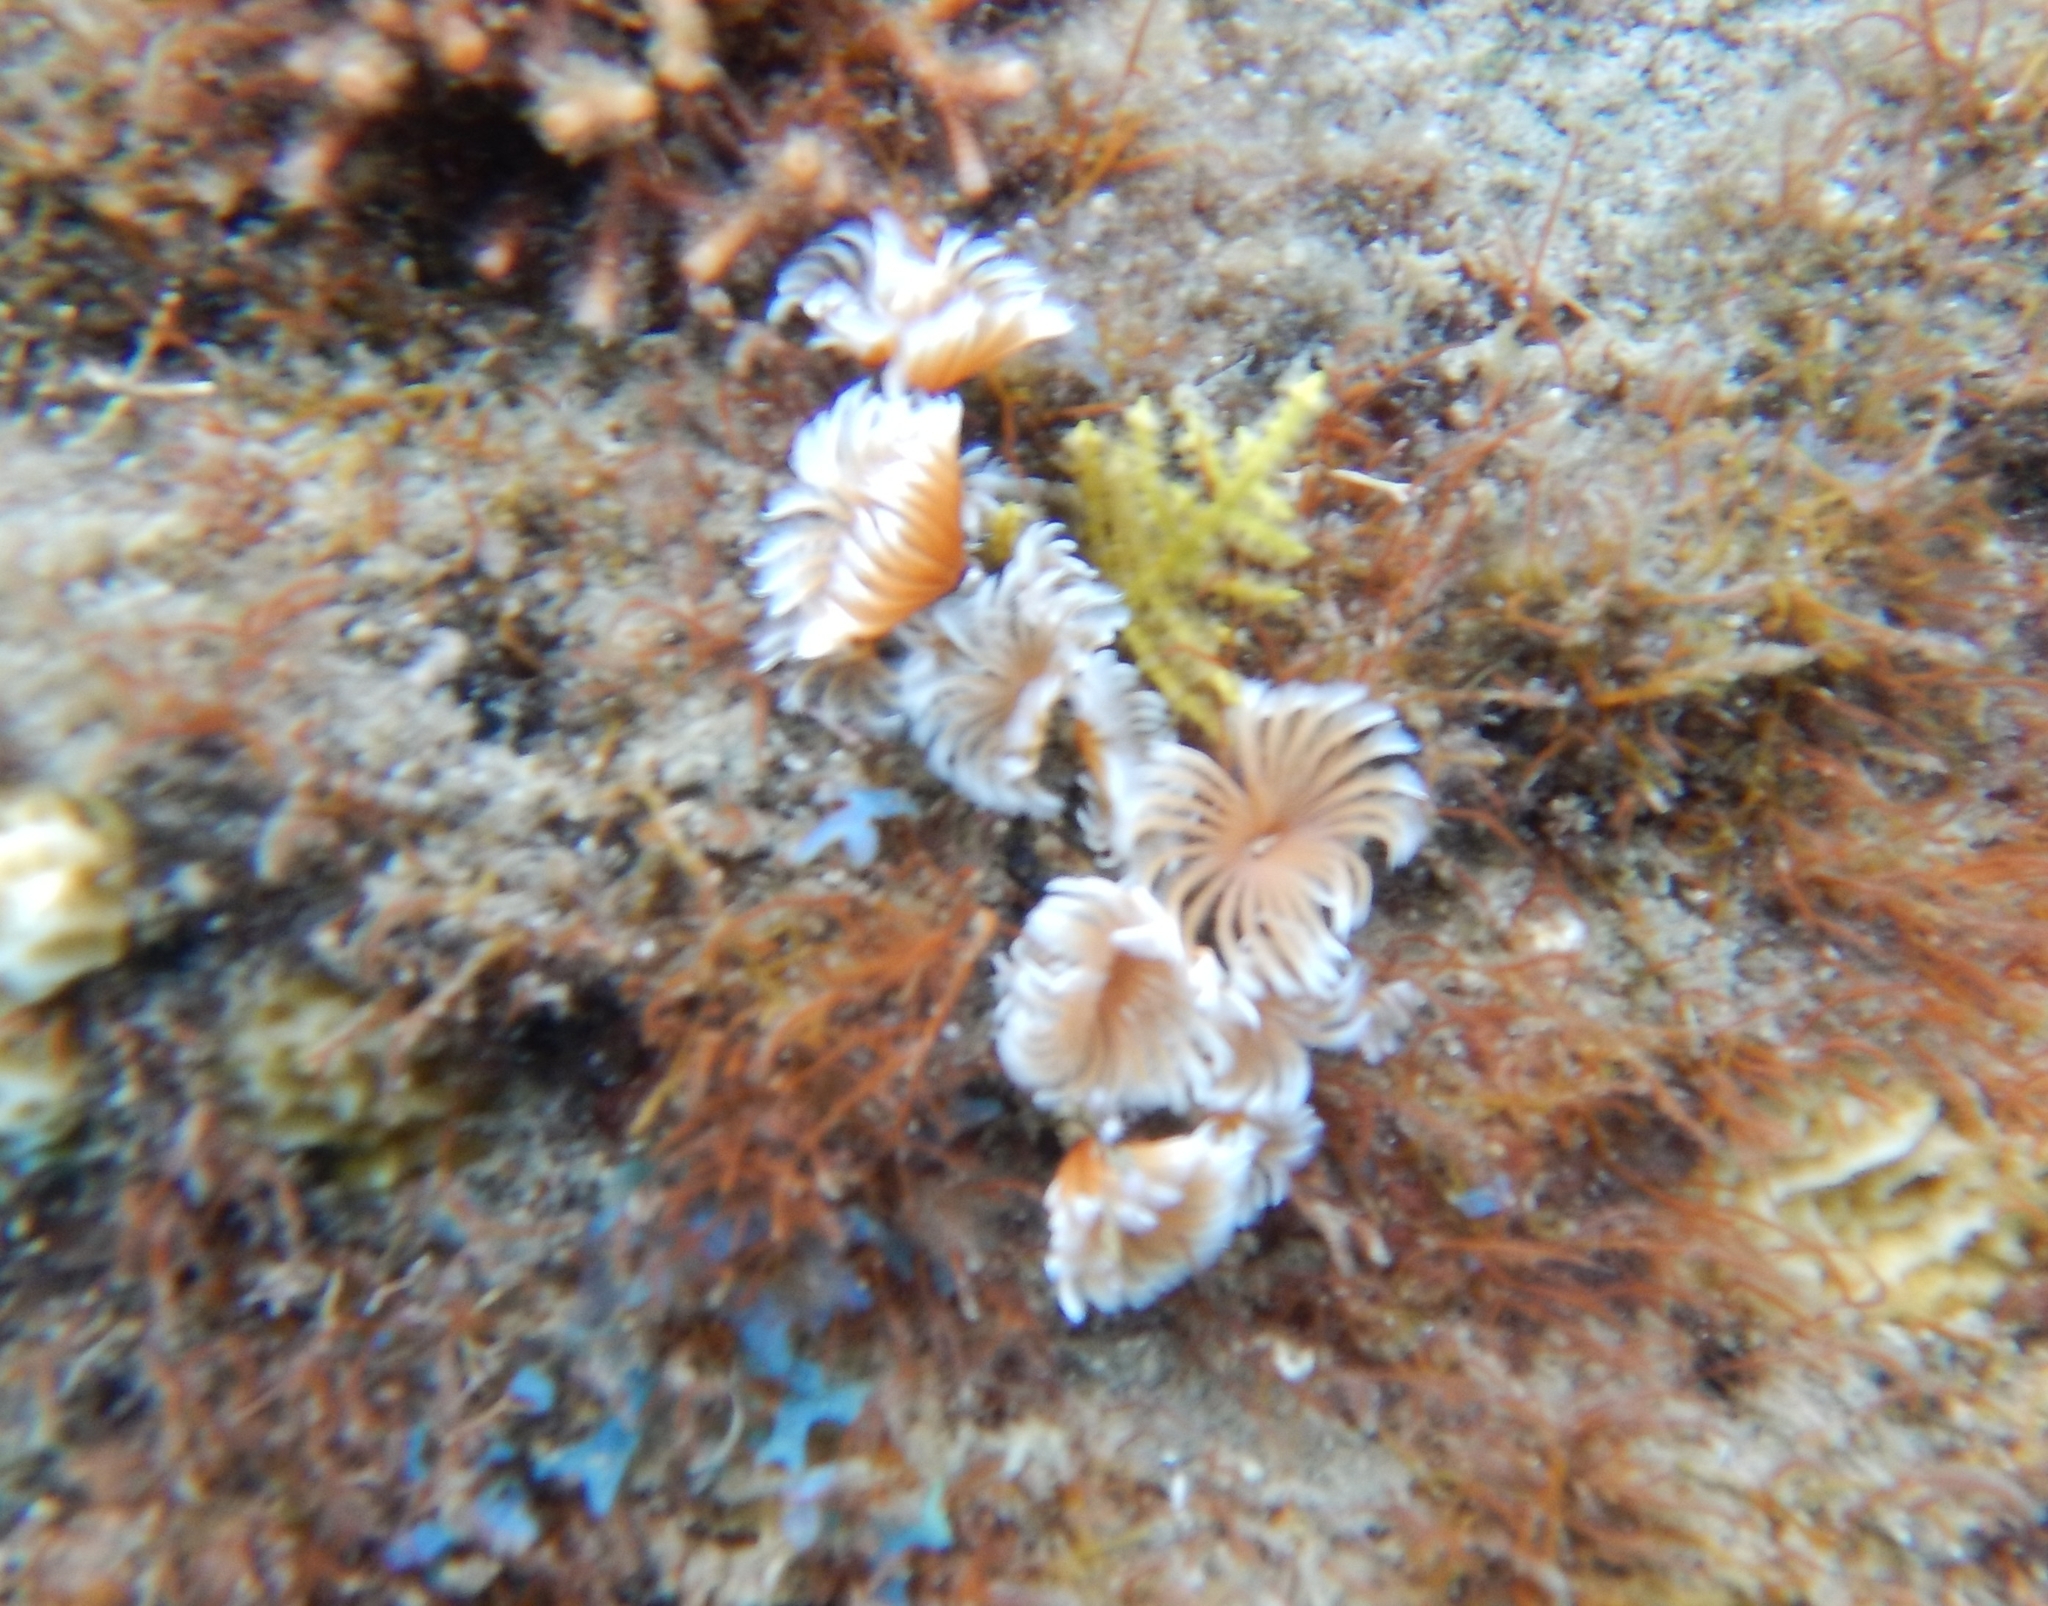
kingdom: Animalia
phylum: Annelida
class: Polychaeta
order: Sabellida
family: Sabellidae
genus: Bispira
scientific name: Bispira brunnea
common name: Social feather duster
